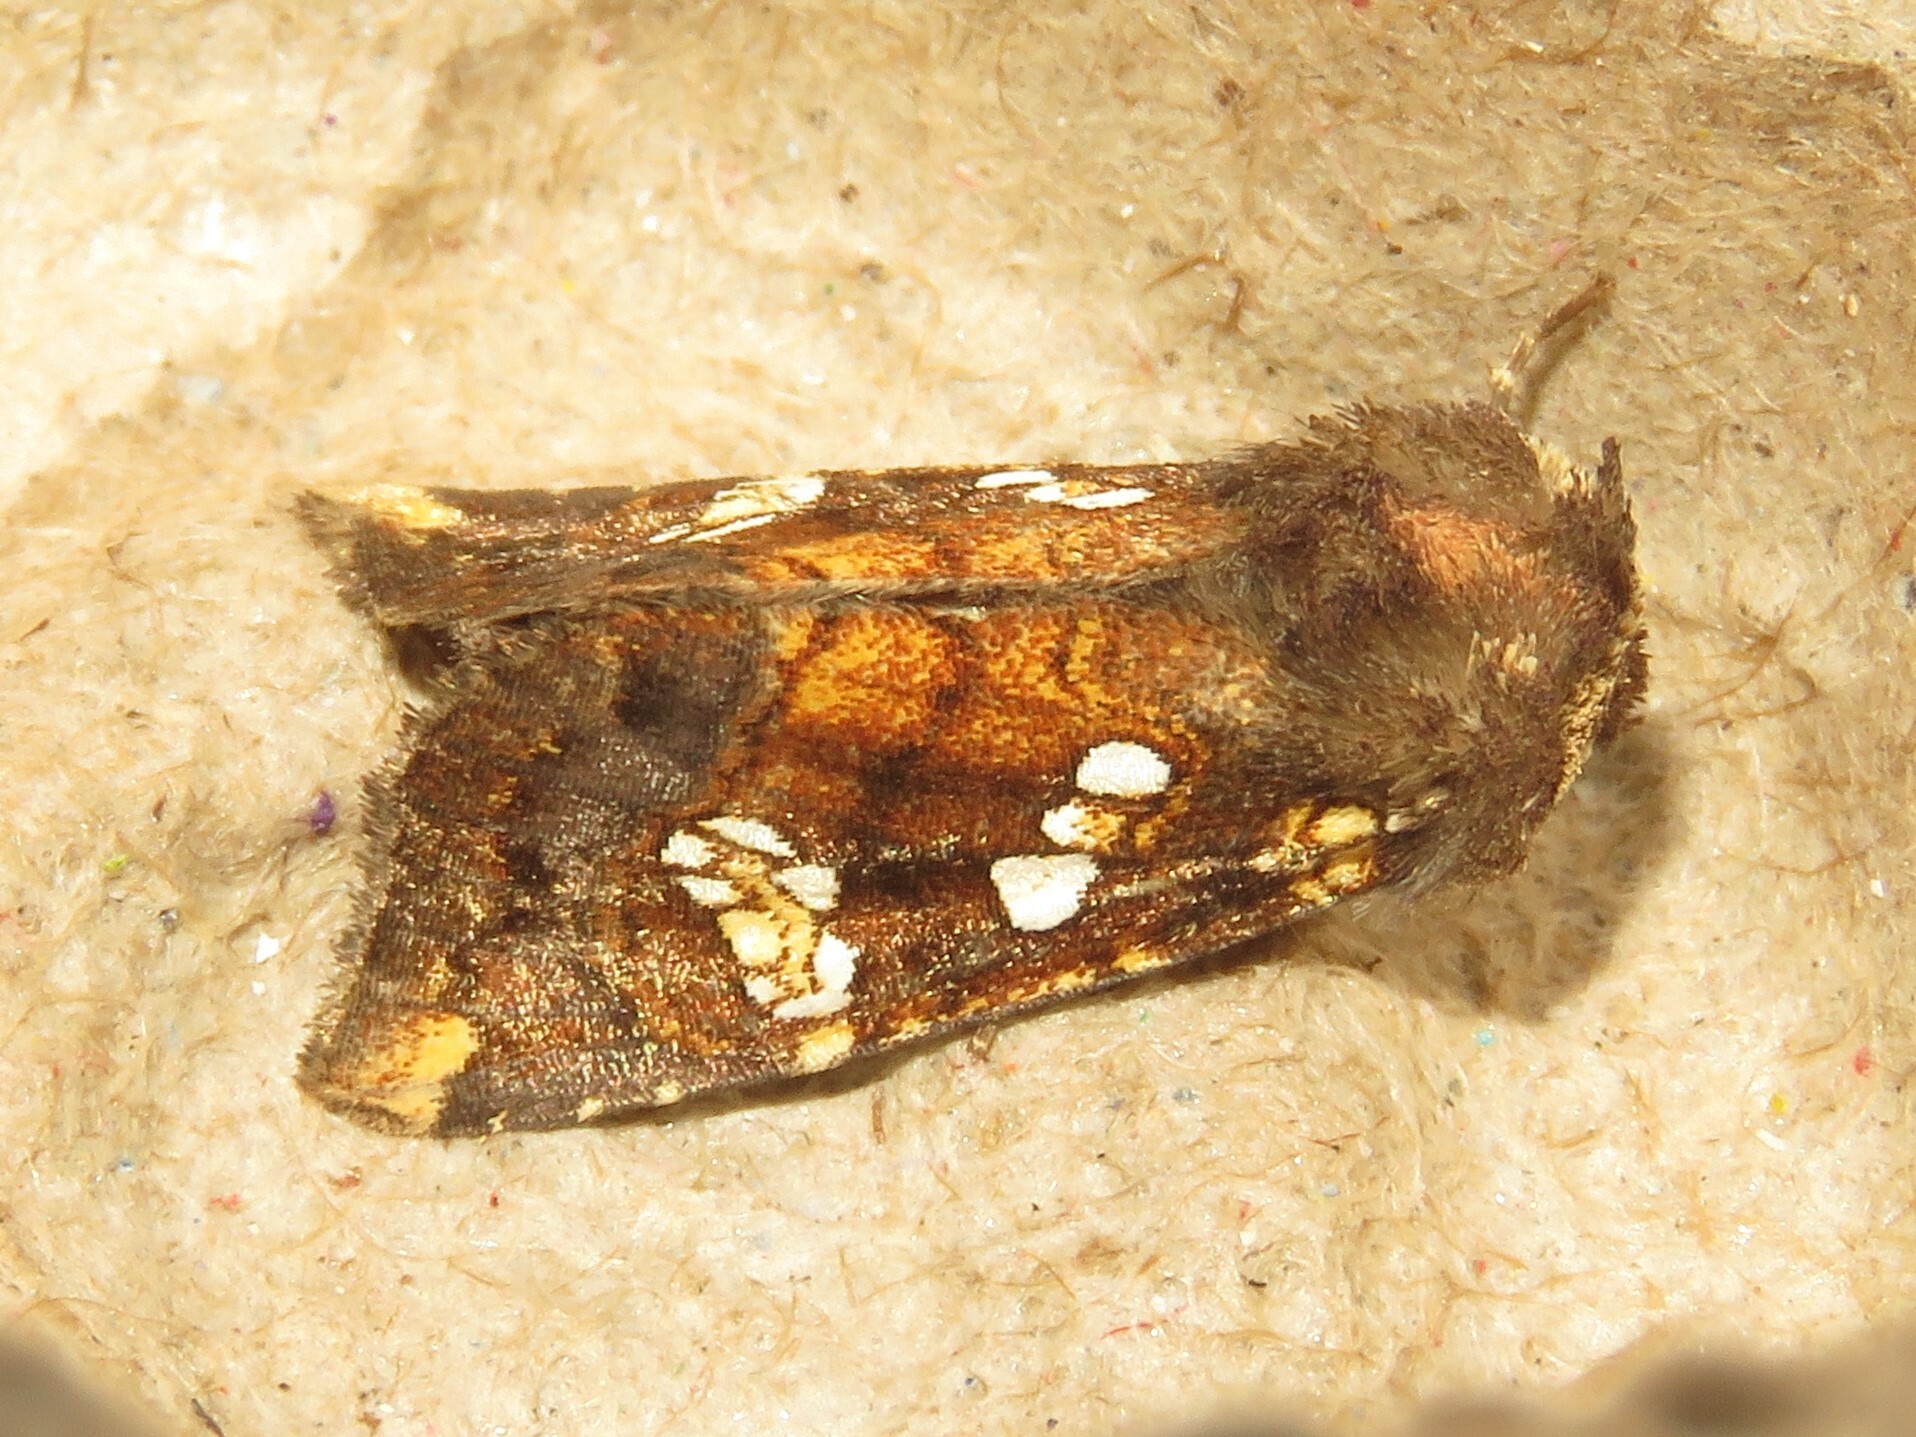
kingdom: Animalia
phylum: Arthropoda
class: Insecta
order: Lepidoptera
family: Noctuidae
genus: Papaipema
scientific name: Papaipema nepheleptena
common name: Turtle head borer moth
